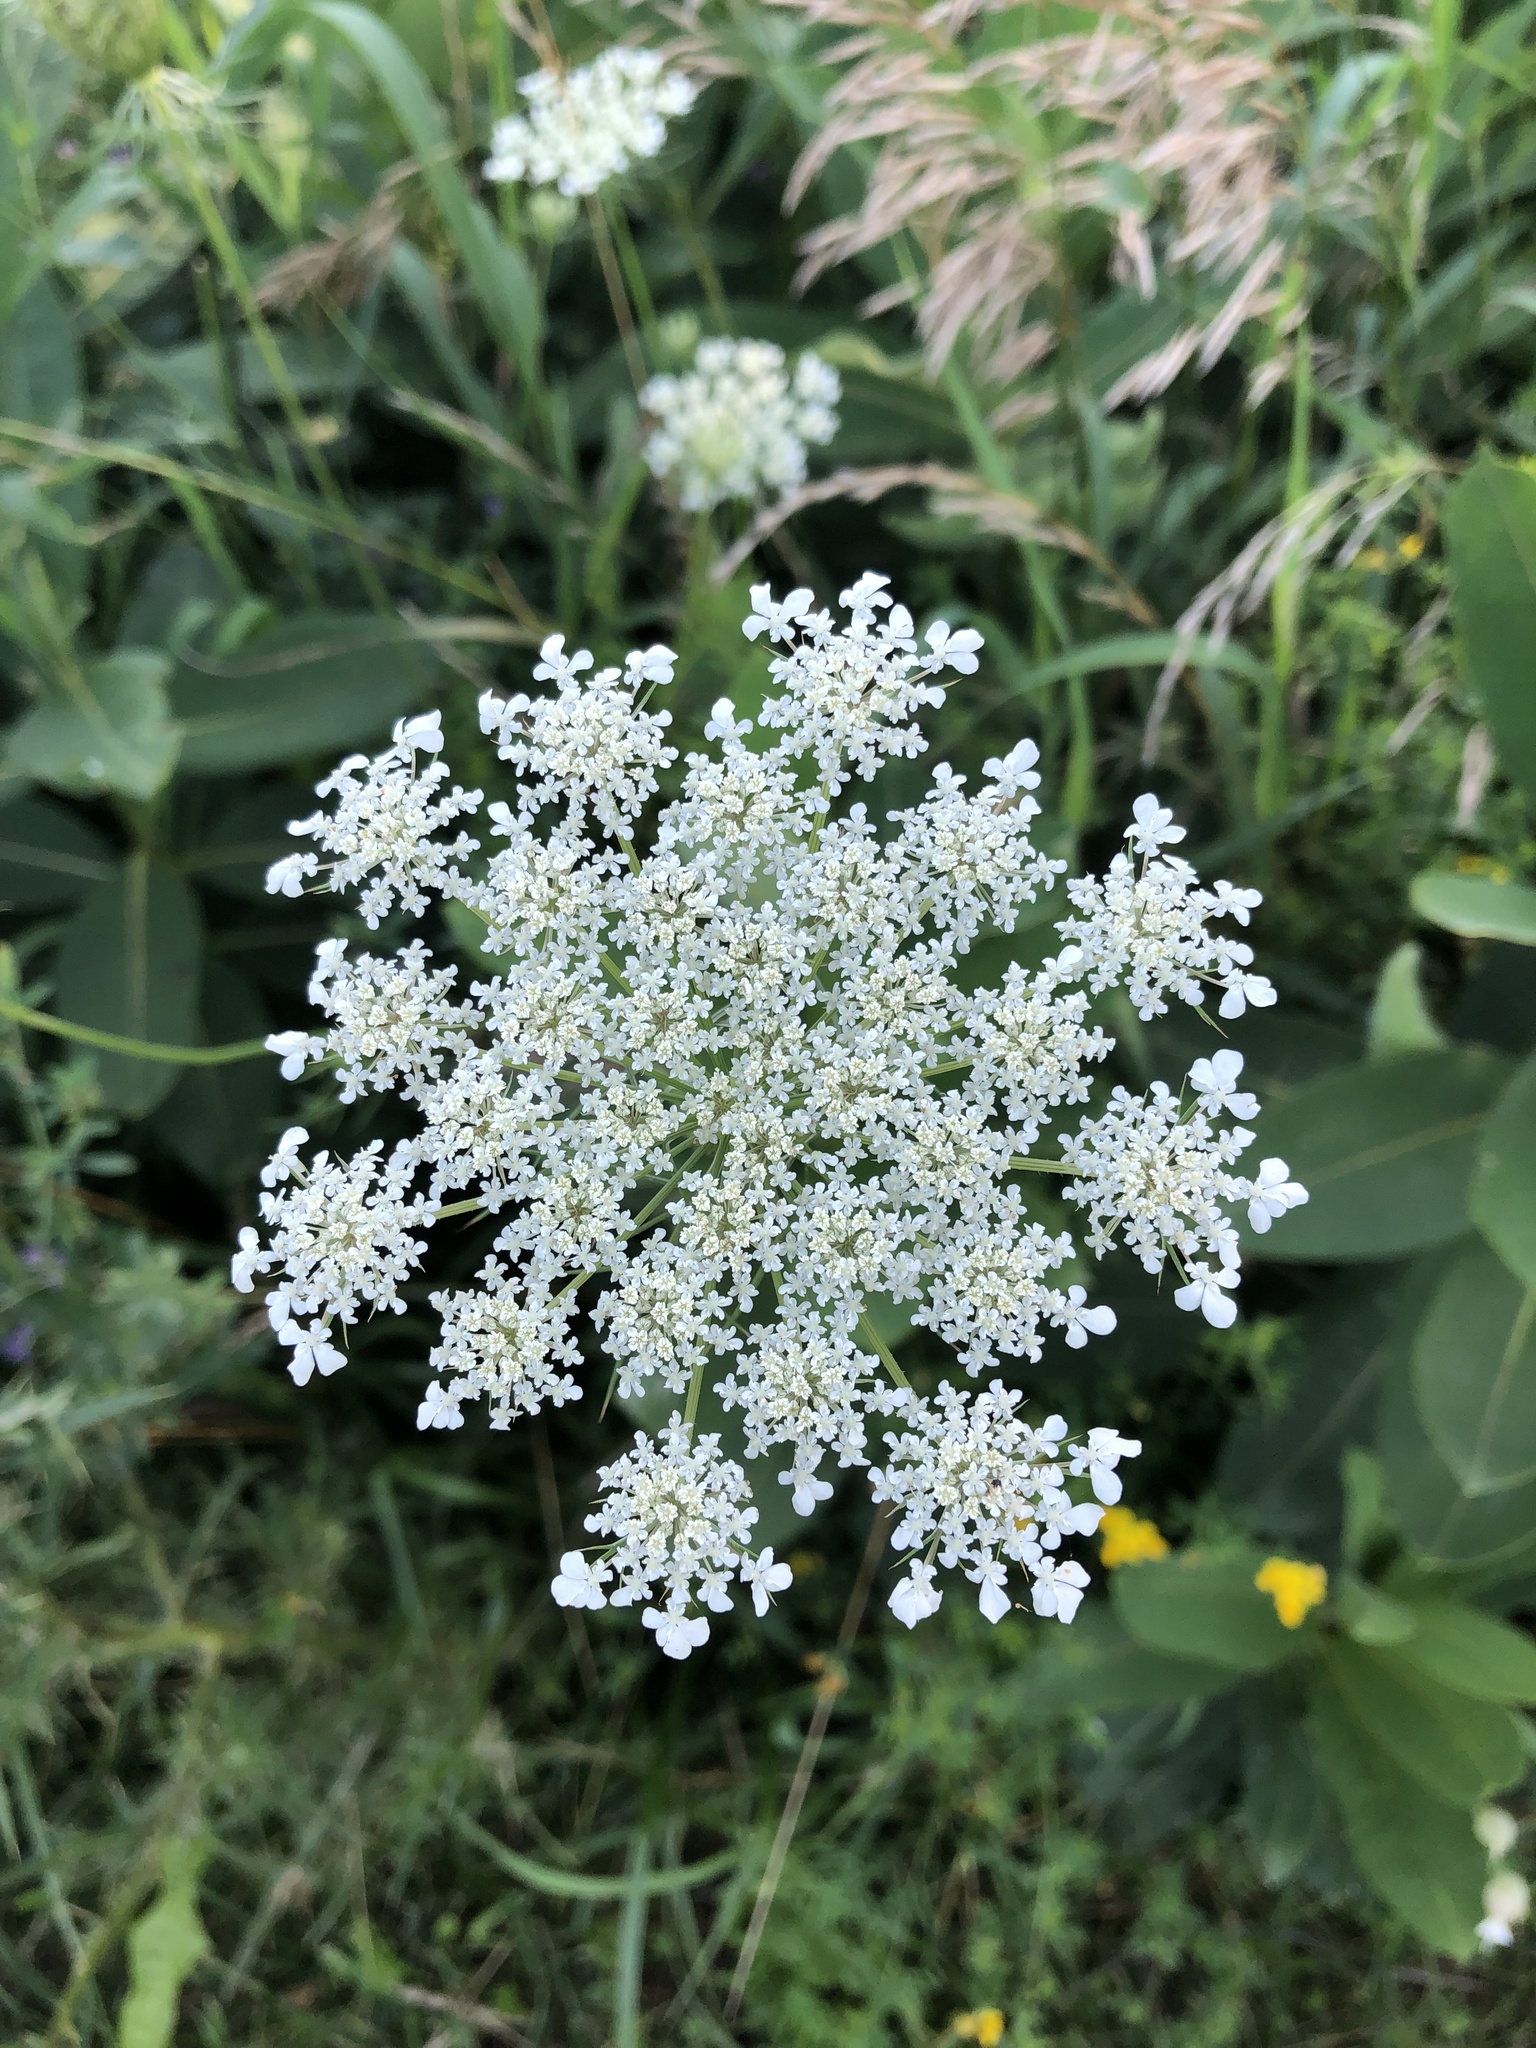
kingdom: Plantae
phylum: Tracheophyta
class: Magnoliopsida
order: Apiales
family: Apiaceae
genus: Daucus
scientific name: Daucus carota
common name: Wild carrot
